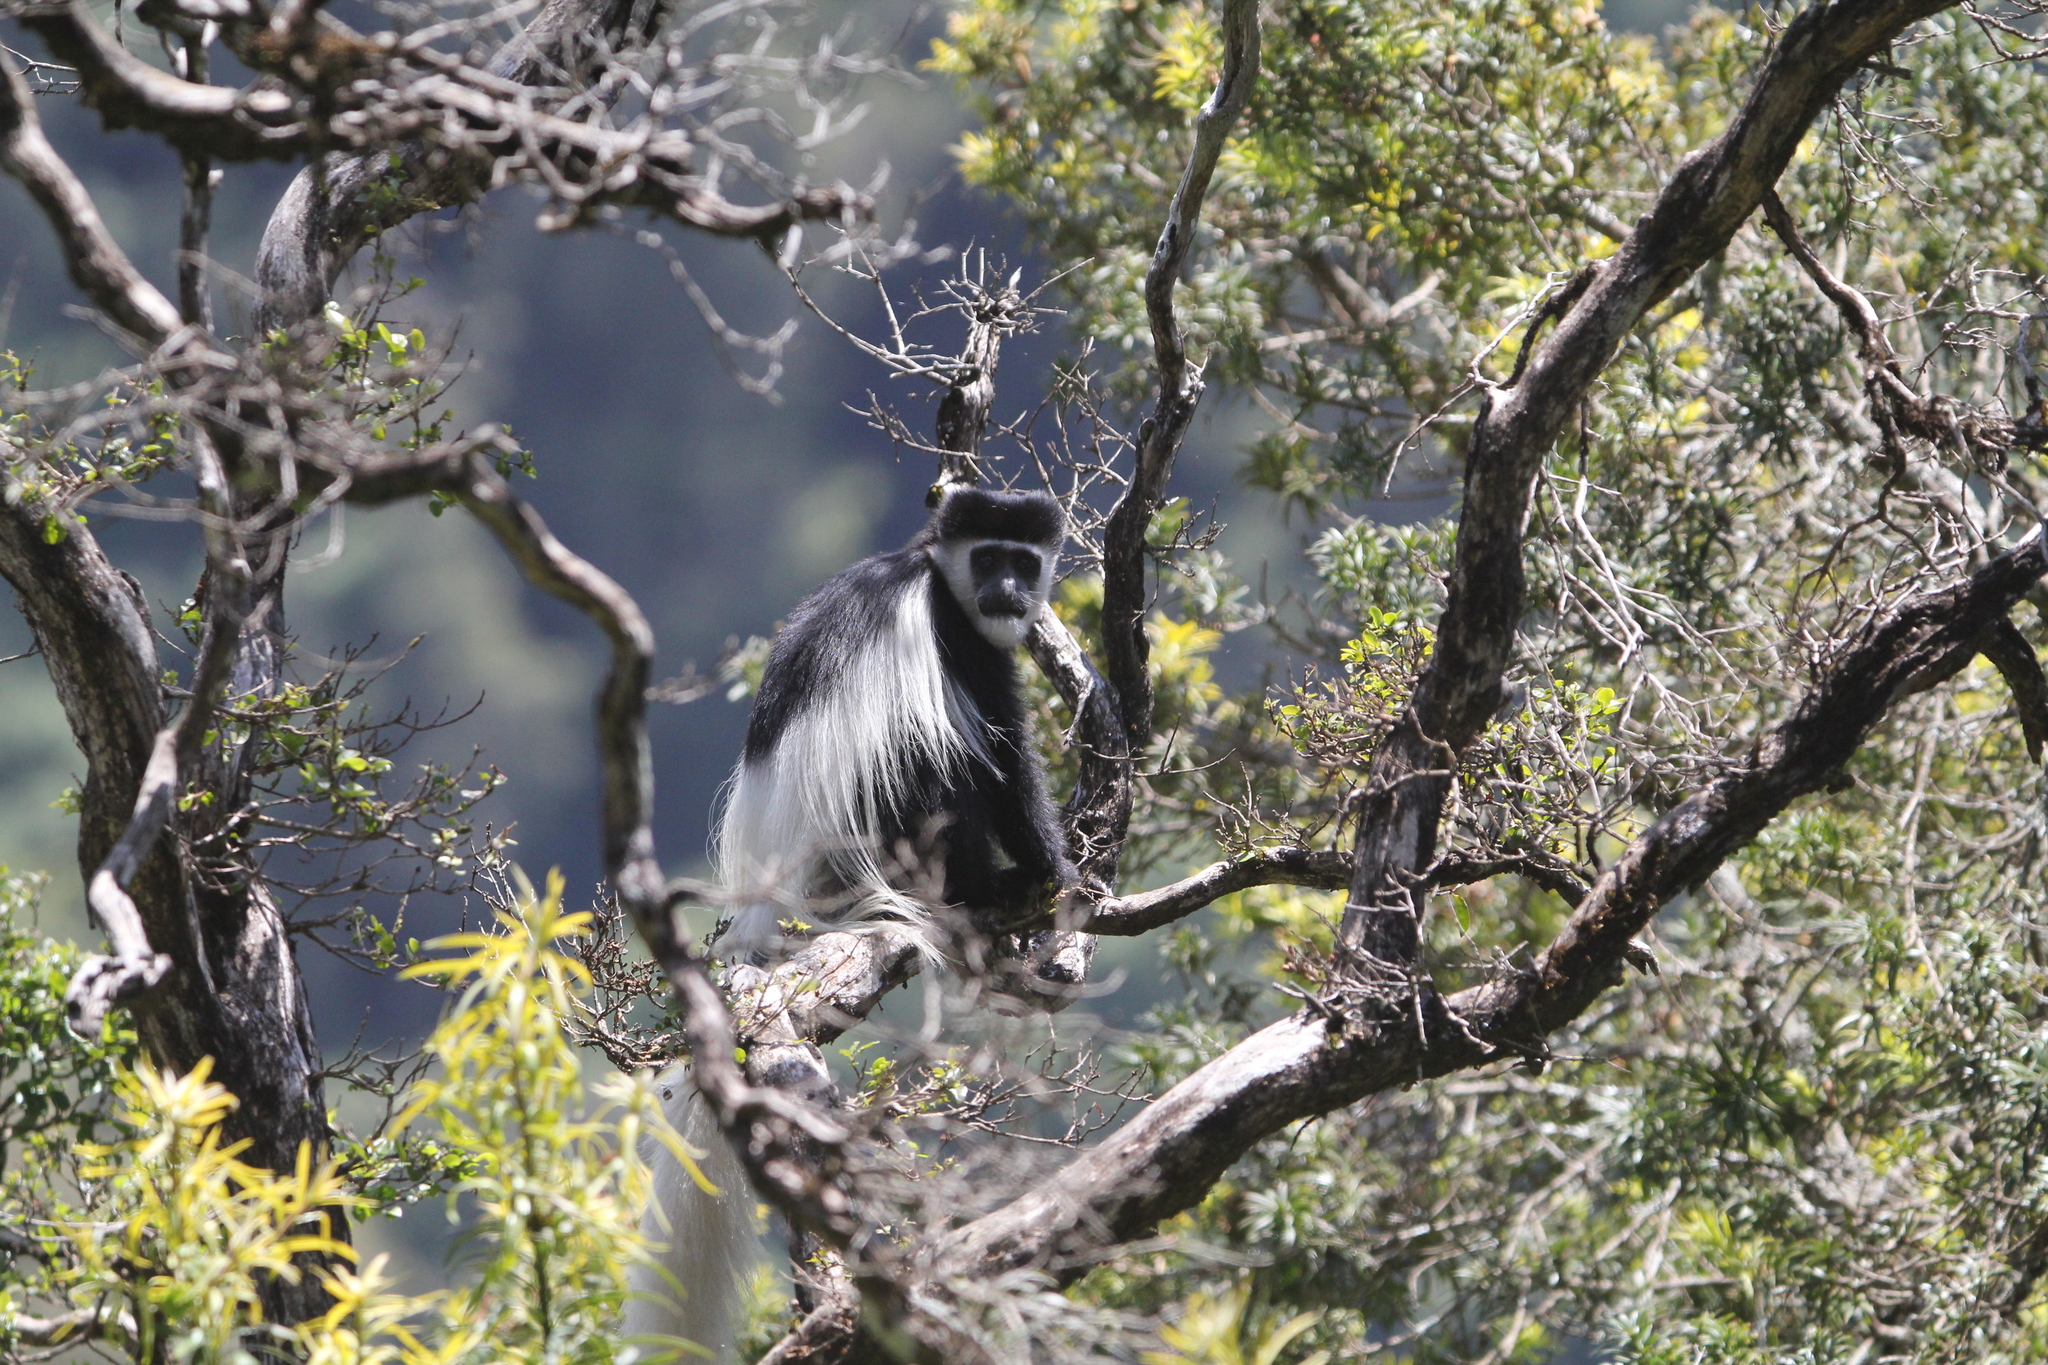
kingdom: Animalia
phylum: Chordata
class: Mammalia
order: Primates
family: Cercopithecidae
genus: Colobus
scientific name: Colobus guereza
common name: Mantled guereza
